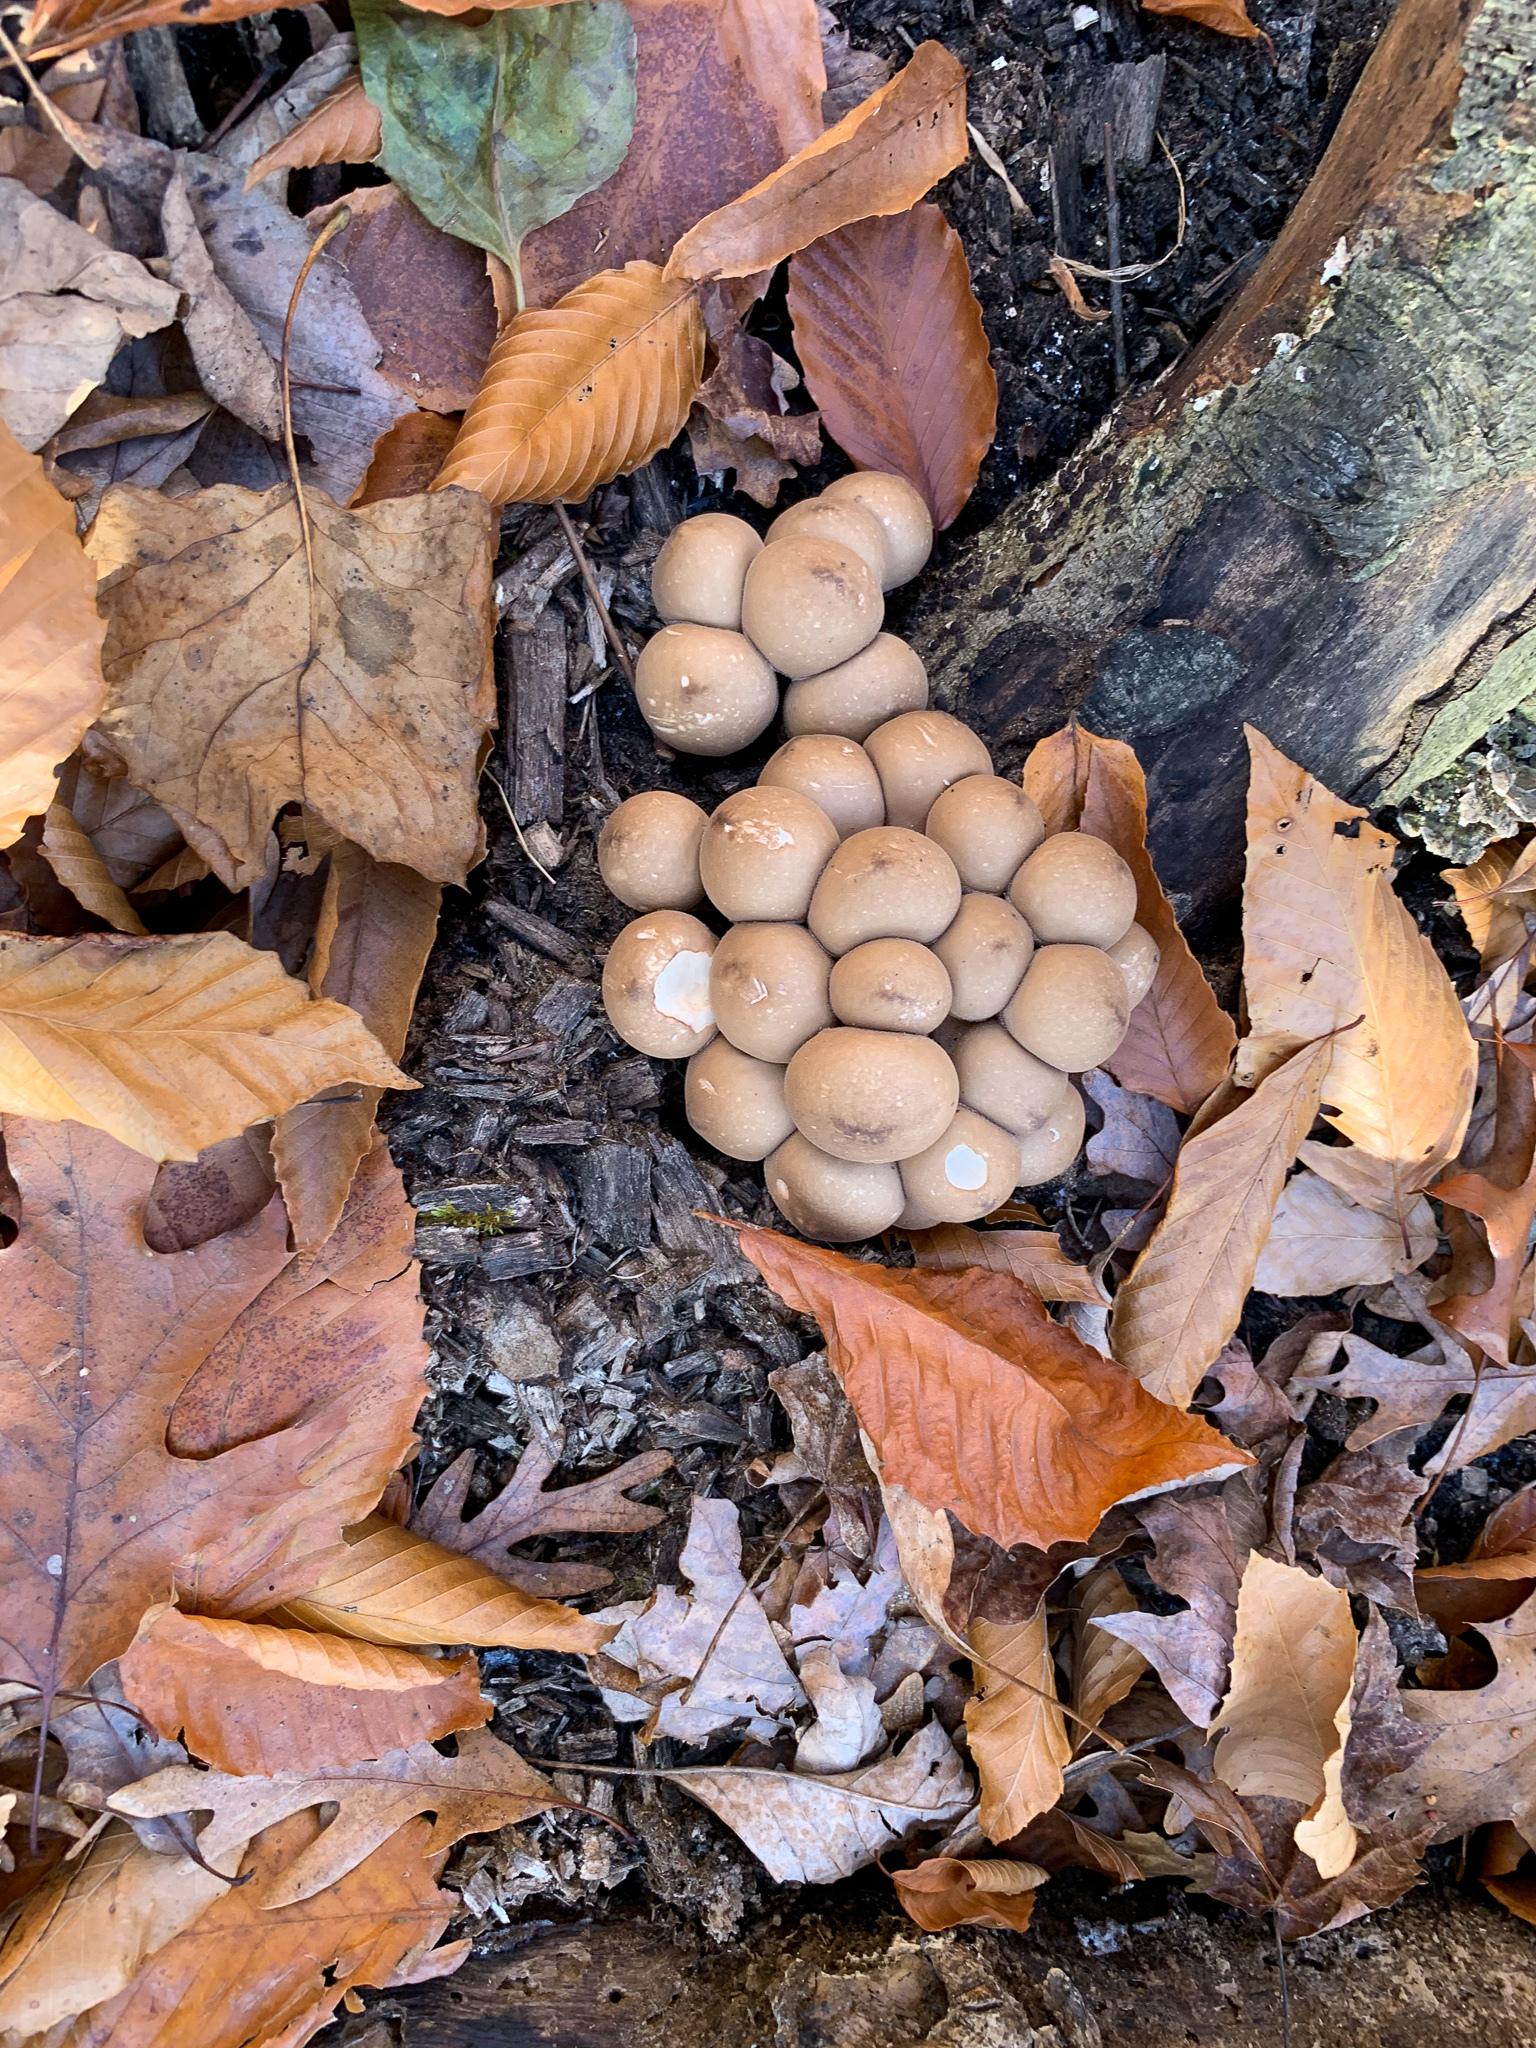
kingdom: Fungi
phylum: Basidiomycota
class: Agaricomycetes
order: Agaricales
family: Lycoperdaceae
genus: Apioperdon
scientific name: Apioperdon pyriforme
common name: Pear-shaped puffball
